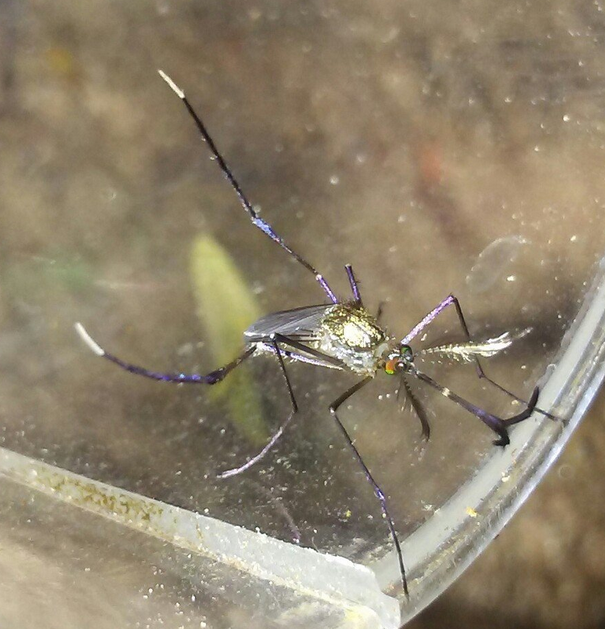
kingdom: Animalia
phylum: Arthropoda
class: Insecta
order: Diptera
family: Culicidae
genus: Psorophora
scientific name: Psorophora ferox
